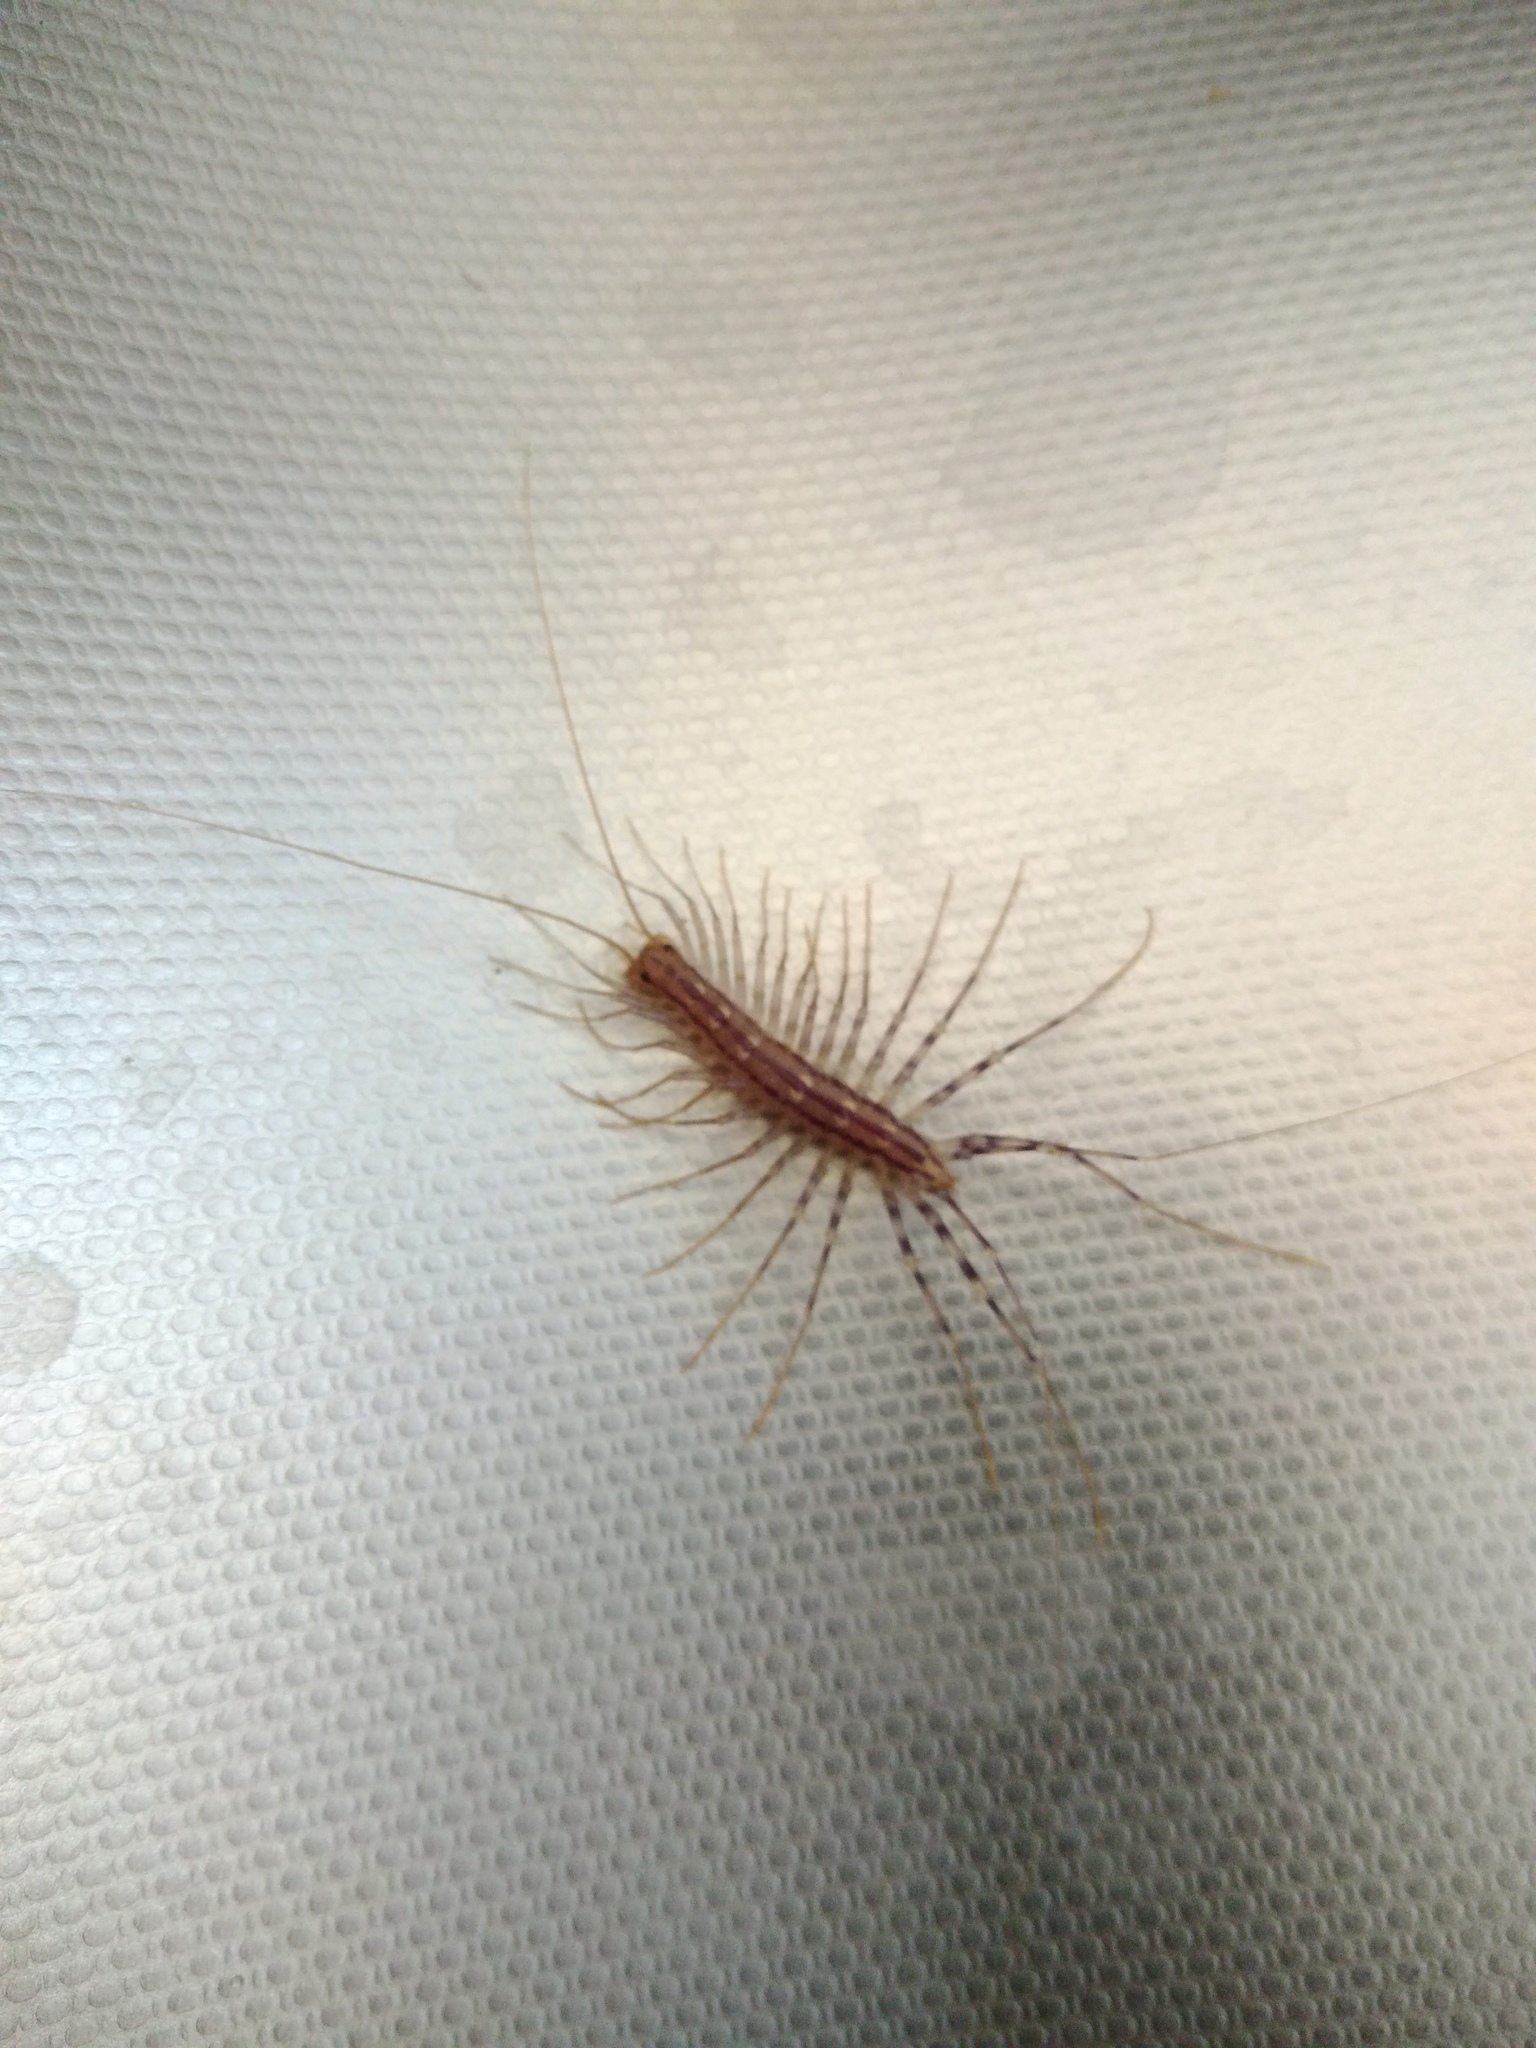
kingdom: Animalia
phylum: Arthropoda
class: Chilopoda
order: Scutigeromorpha
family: Scutigeridae
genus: Scutigera
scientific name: Scutigera coleoptrata
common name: House centipede
